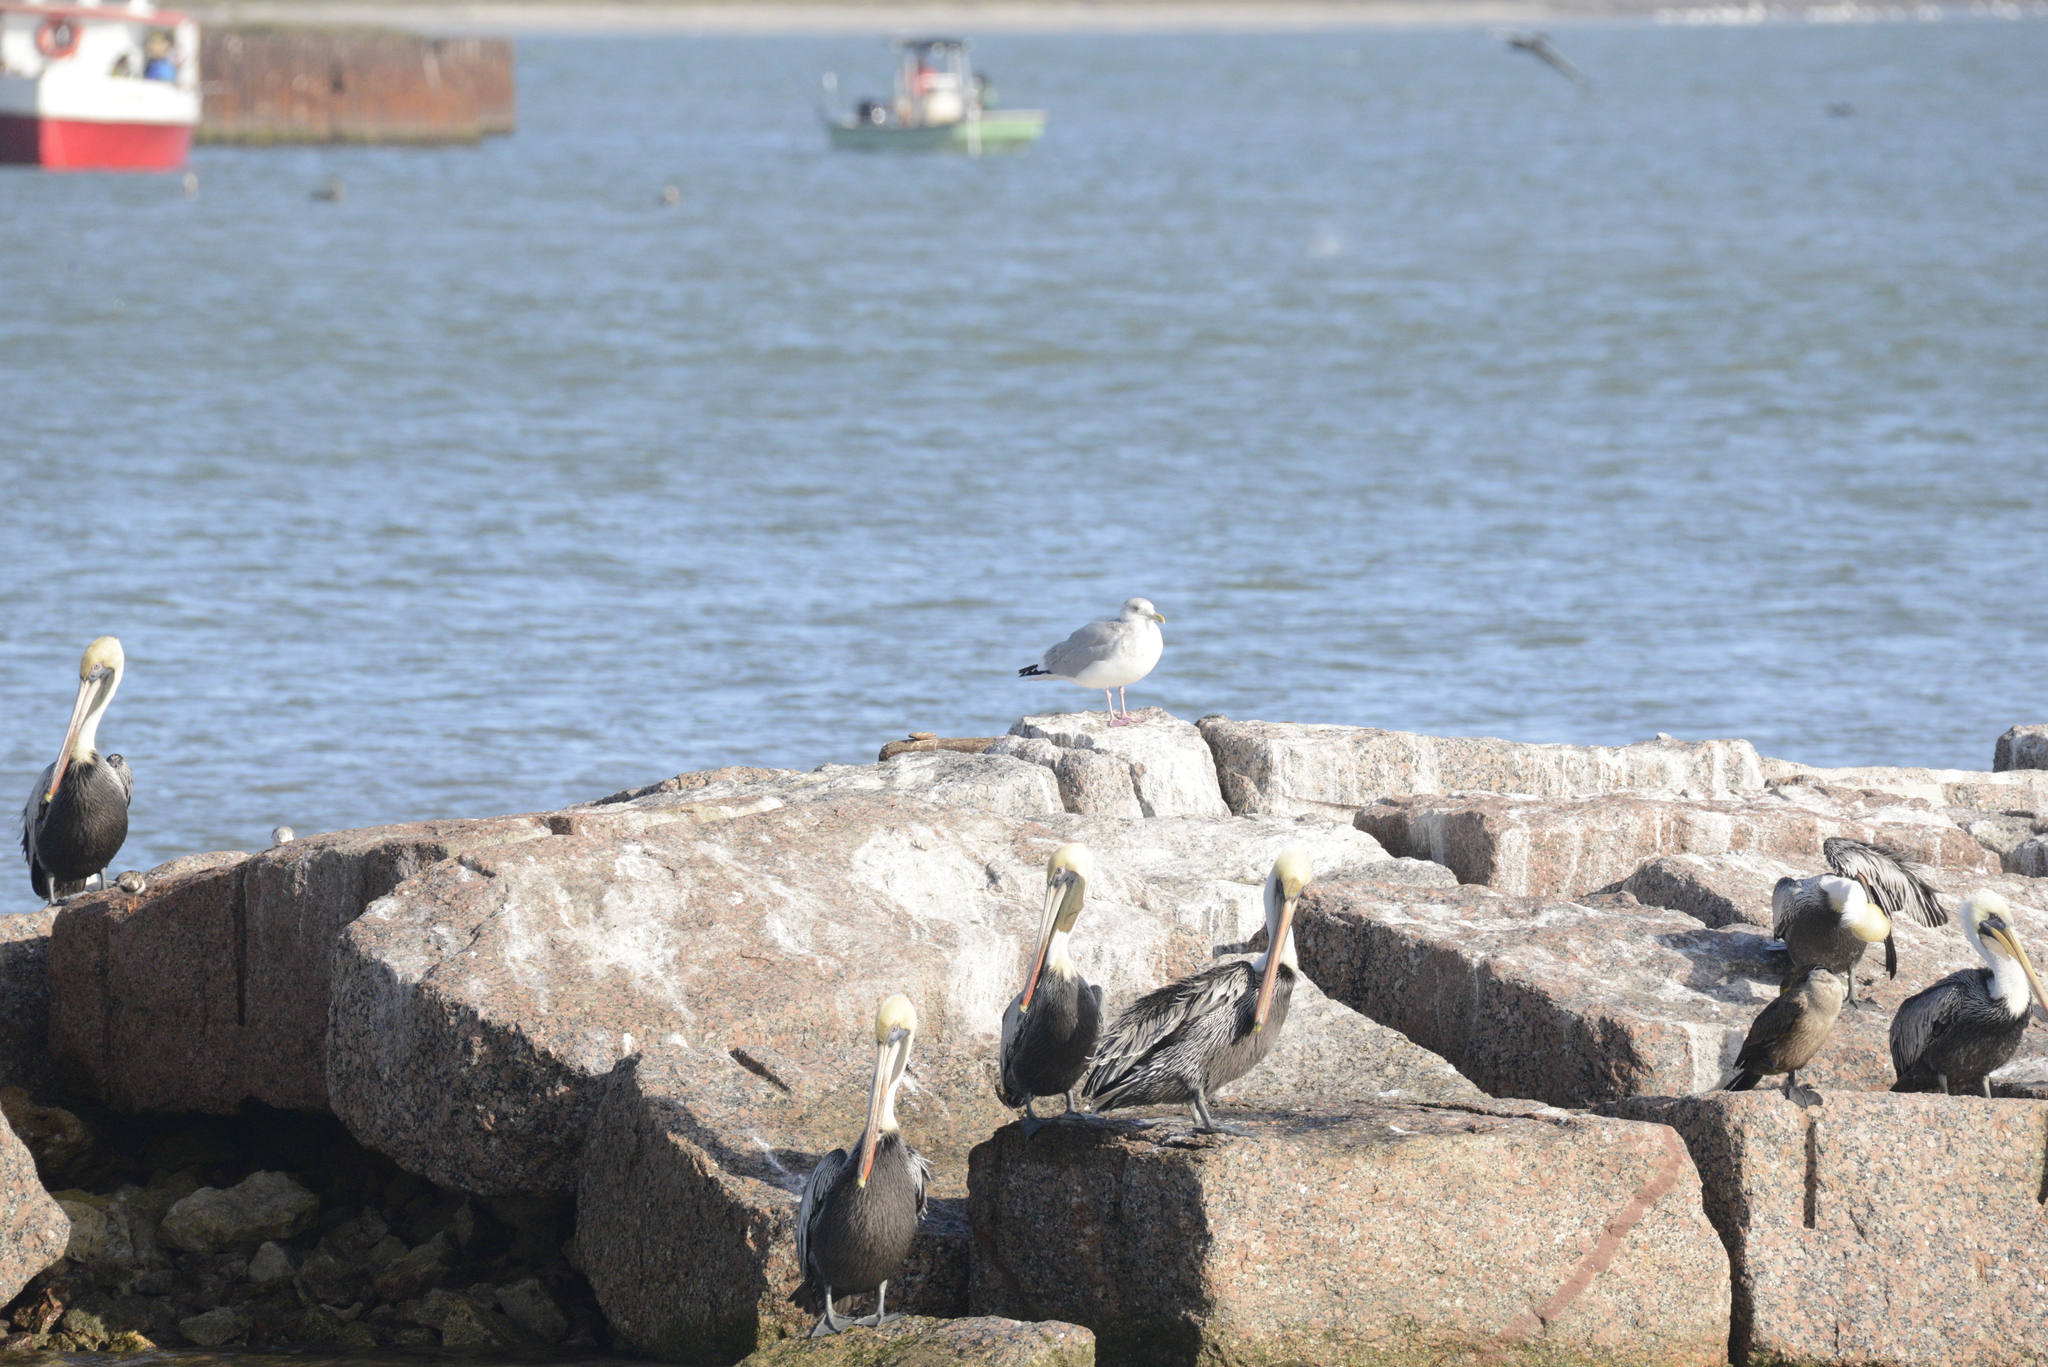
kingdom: Animalia
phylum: Chordata
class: Aves
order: Charadriiformes
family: Laridae
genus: Larus
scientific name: Larus argentatus
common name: Herring gull
